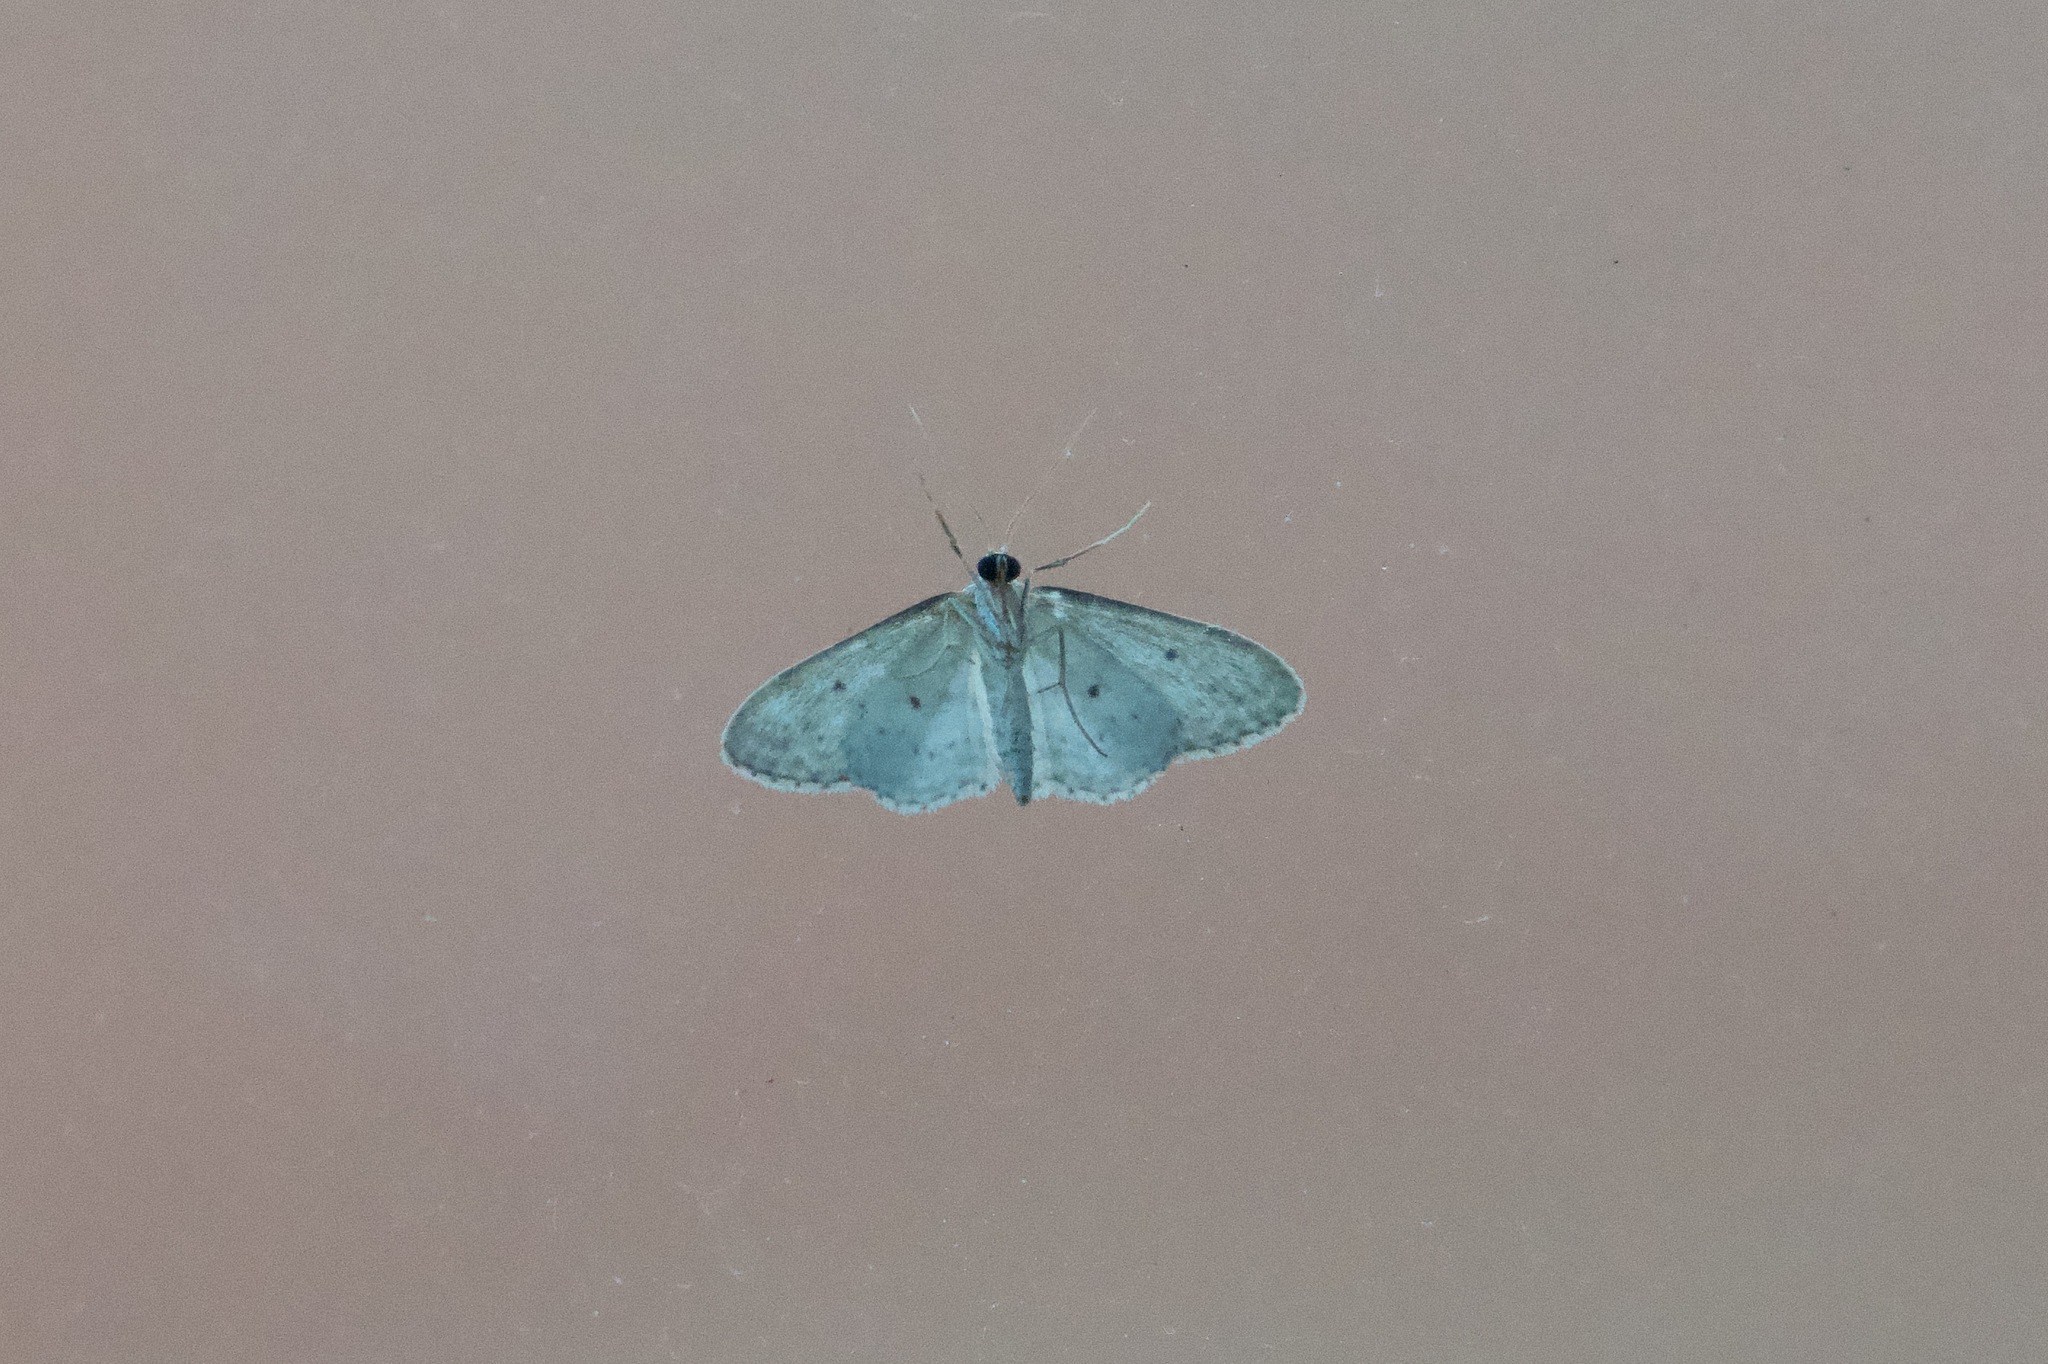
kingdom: Animalia
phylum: Arthropoda
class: Insecta
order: Lepidoptera
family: Geometridae
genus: Idaea
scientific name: Idaea seriata
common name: Small dusty wave
